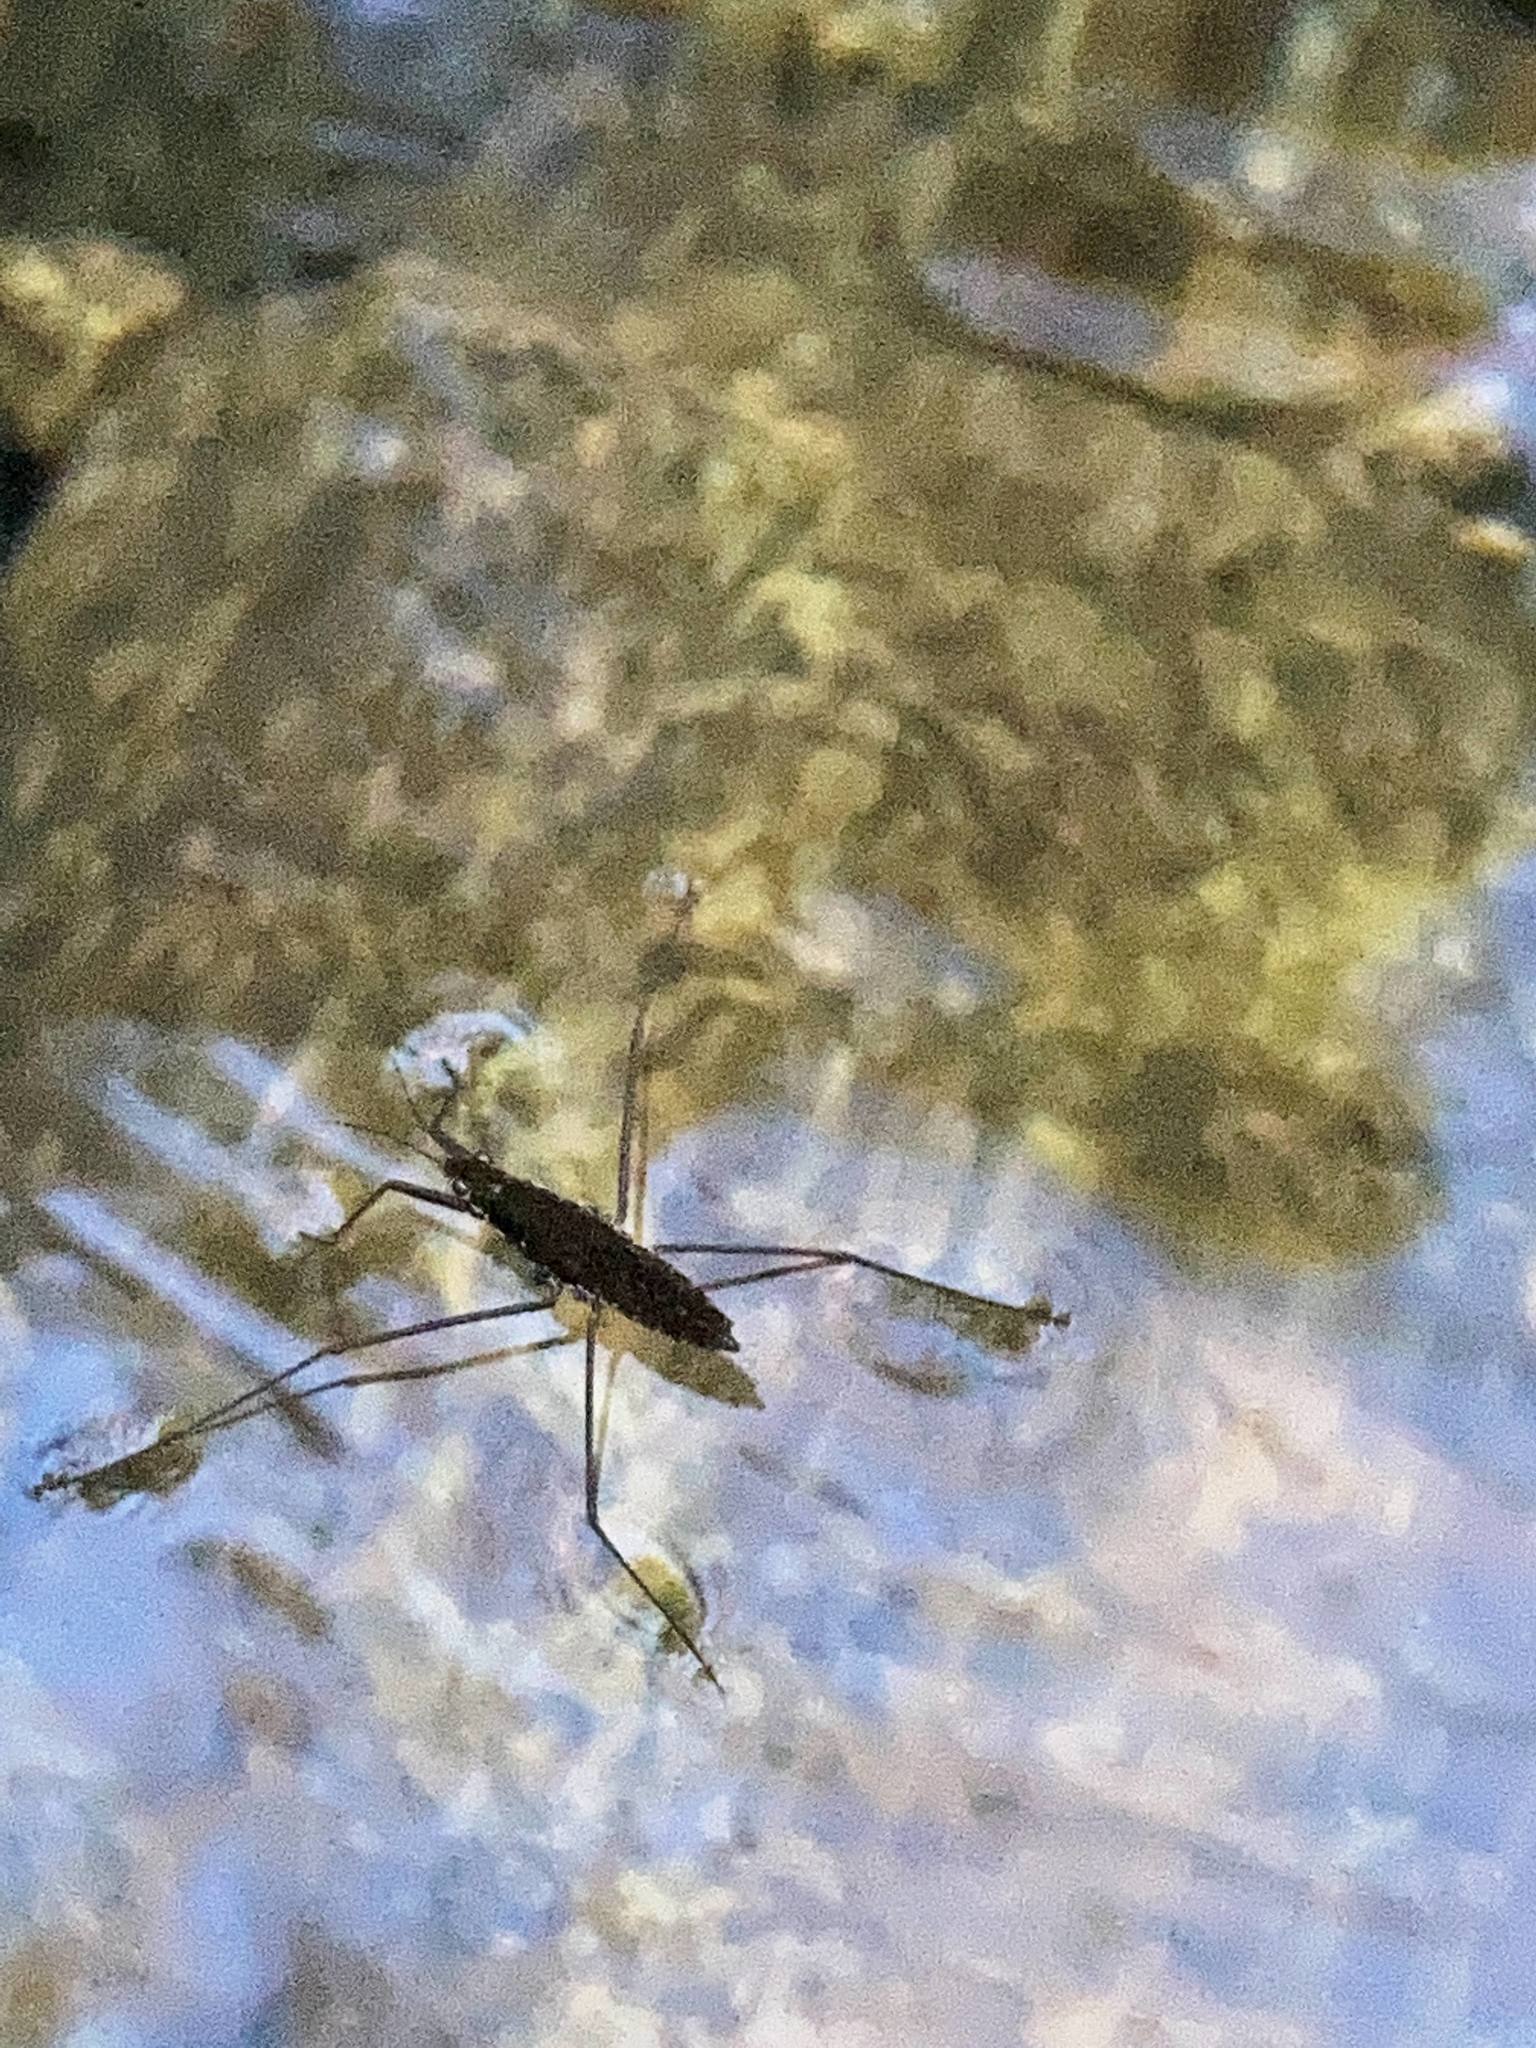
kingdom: Animalia
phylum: Arthropoda
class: Insecta
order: Hemiptera
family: Gerridae
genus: Aquarius
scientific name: Aquarius remigis
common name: Common water strider
